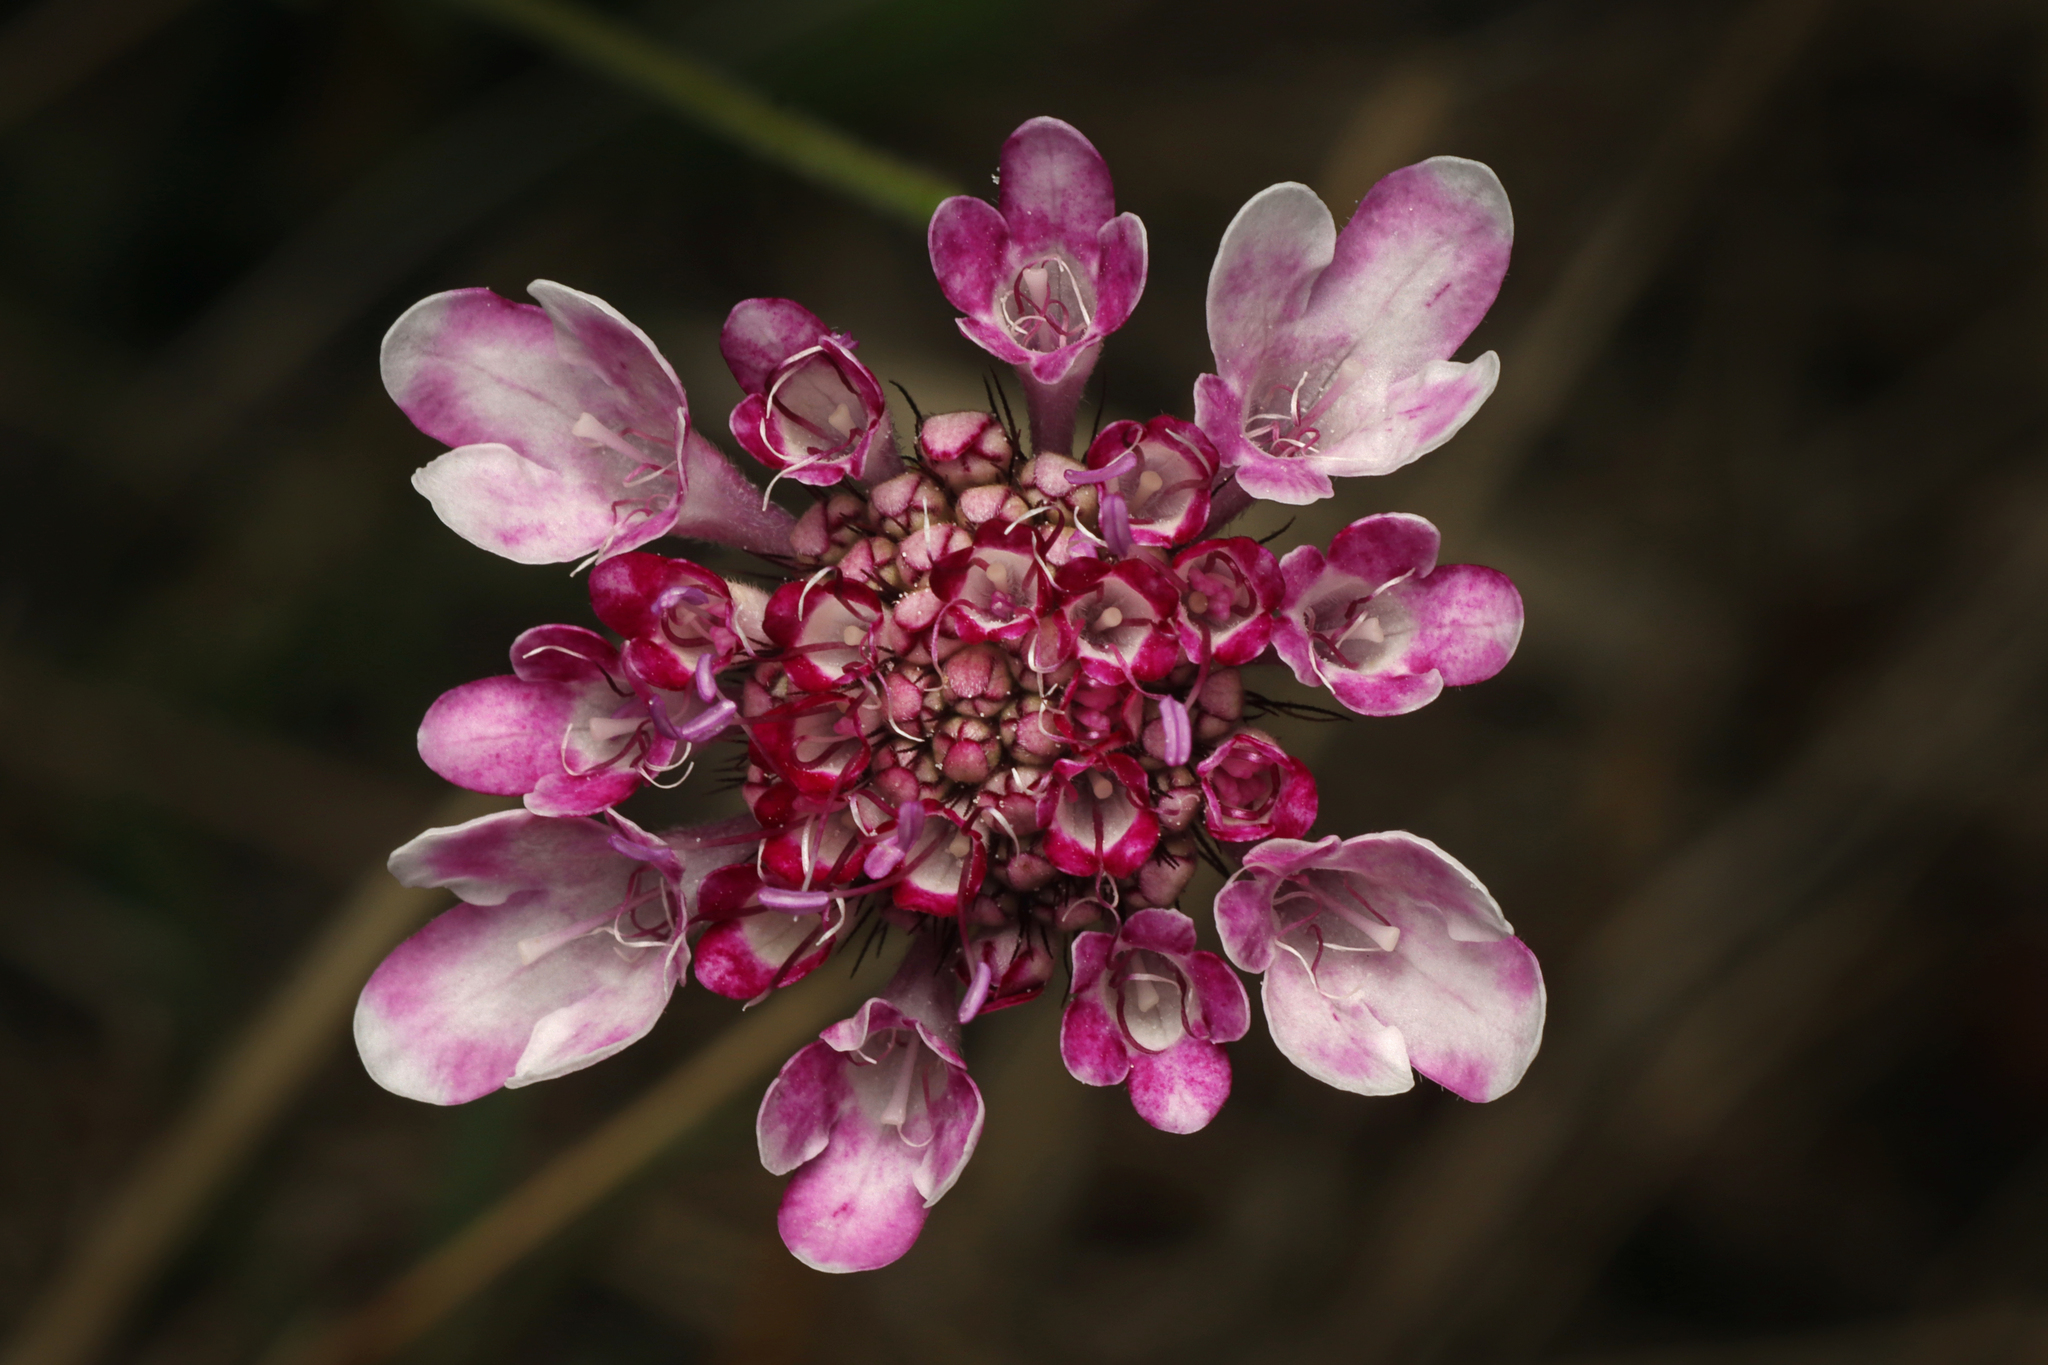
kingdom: Plantae
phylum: Tracheophyta
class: Magnoliopsida
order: Dipsacales
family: Caprifoliaceae
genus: Sixalix
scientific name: Sixalix atropurpurea
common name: Sweet scabious
